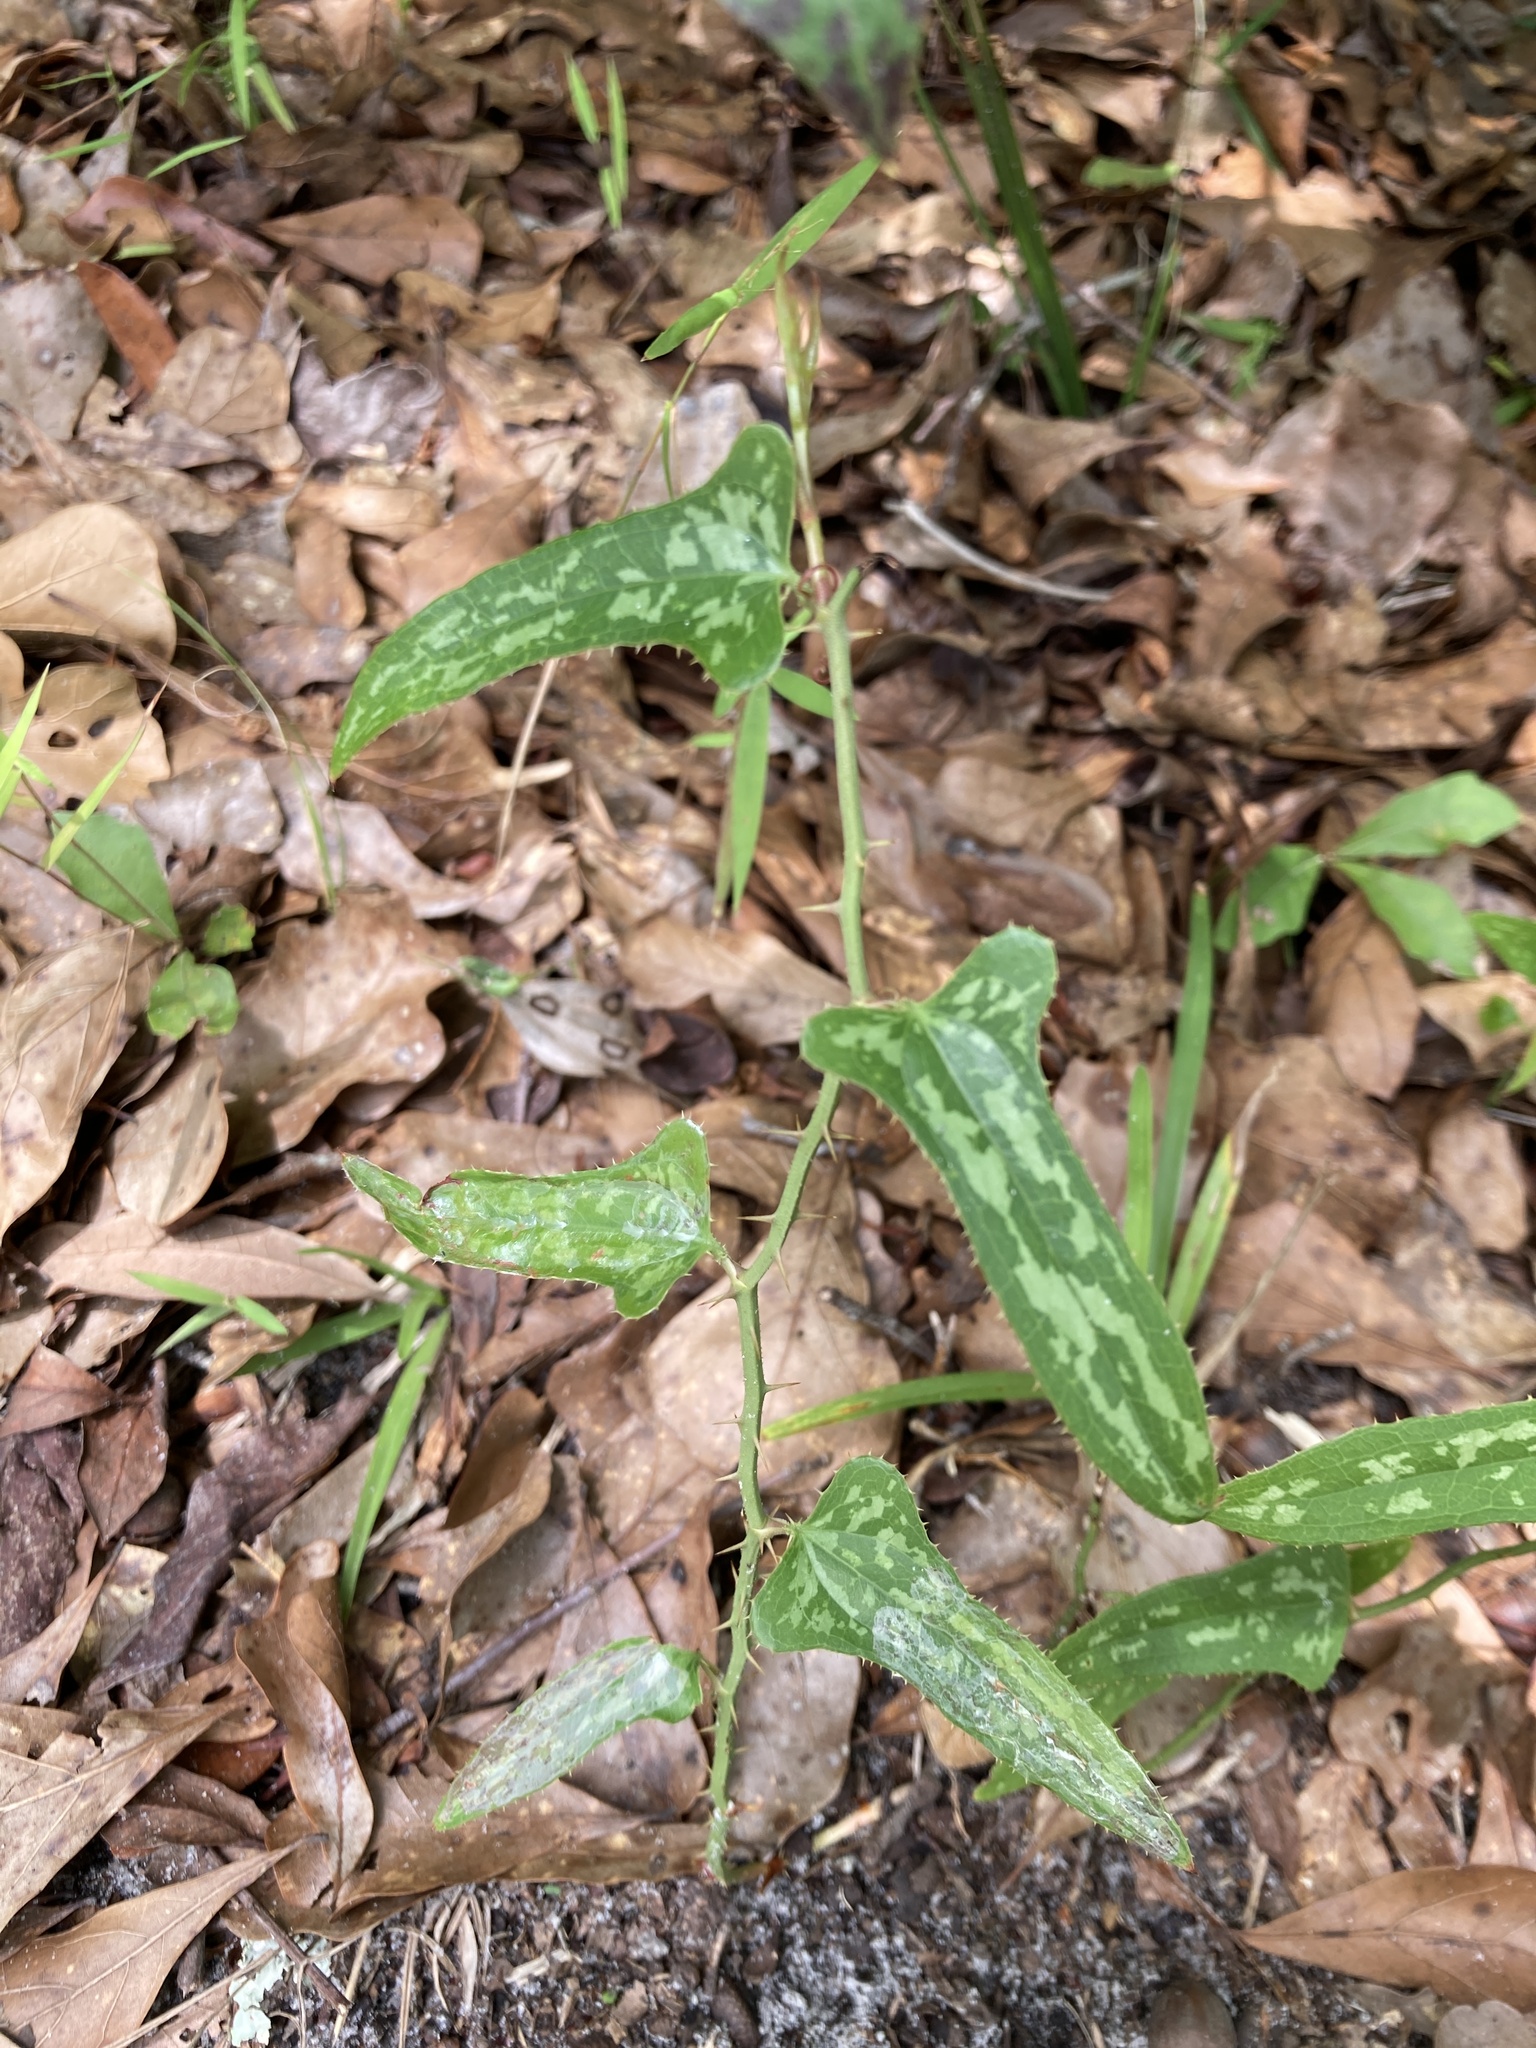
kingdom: Plantae
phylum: Tracheophyta
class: Liliopsida
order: Liliales
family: Smilacaceae
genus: Smilax
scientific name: Smilax bona-nox
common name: Catbrier
